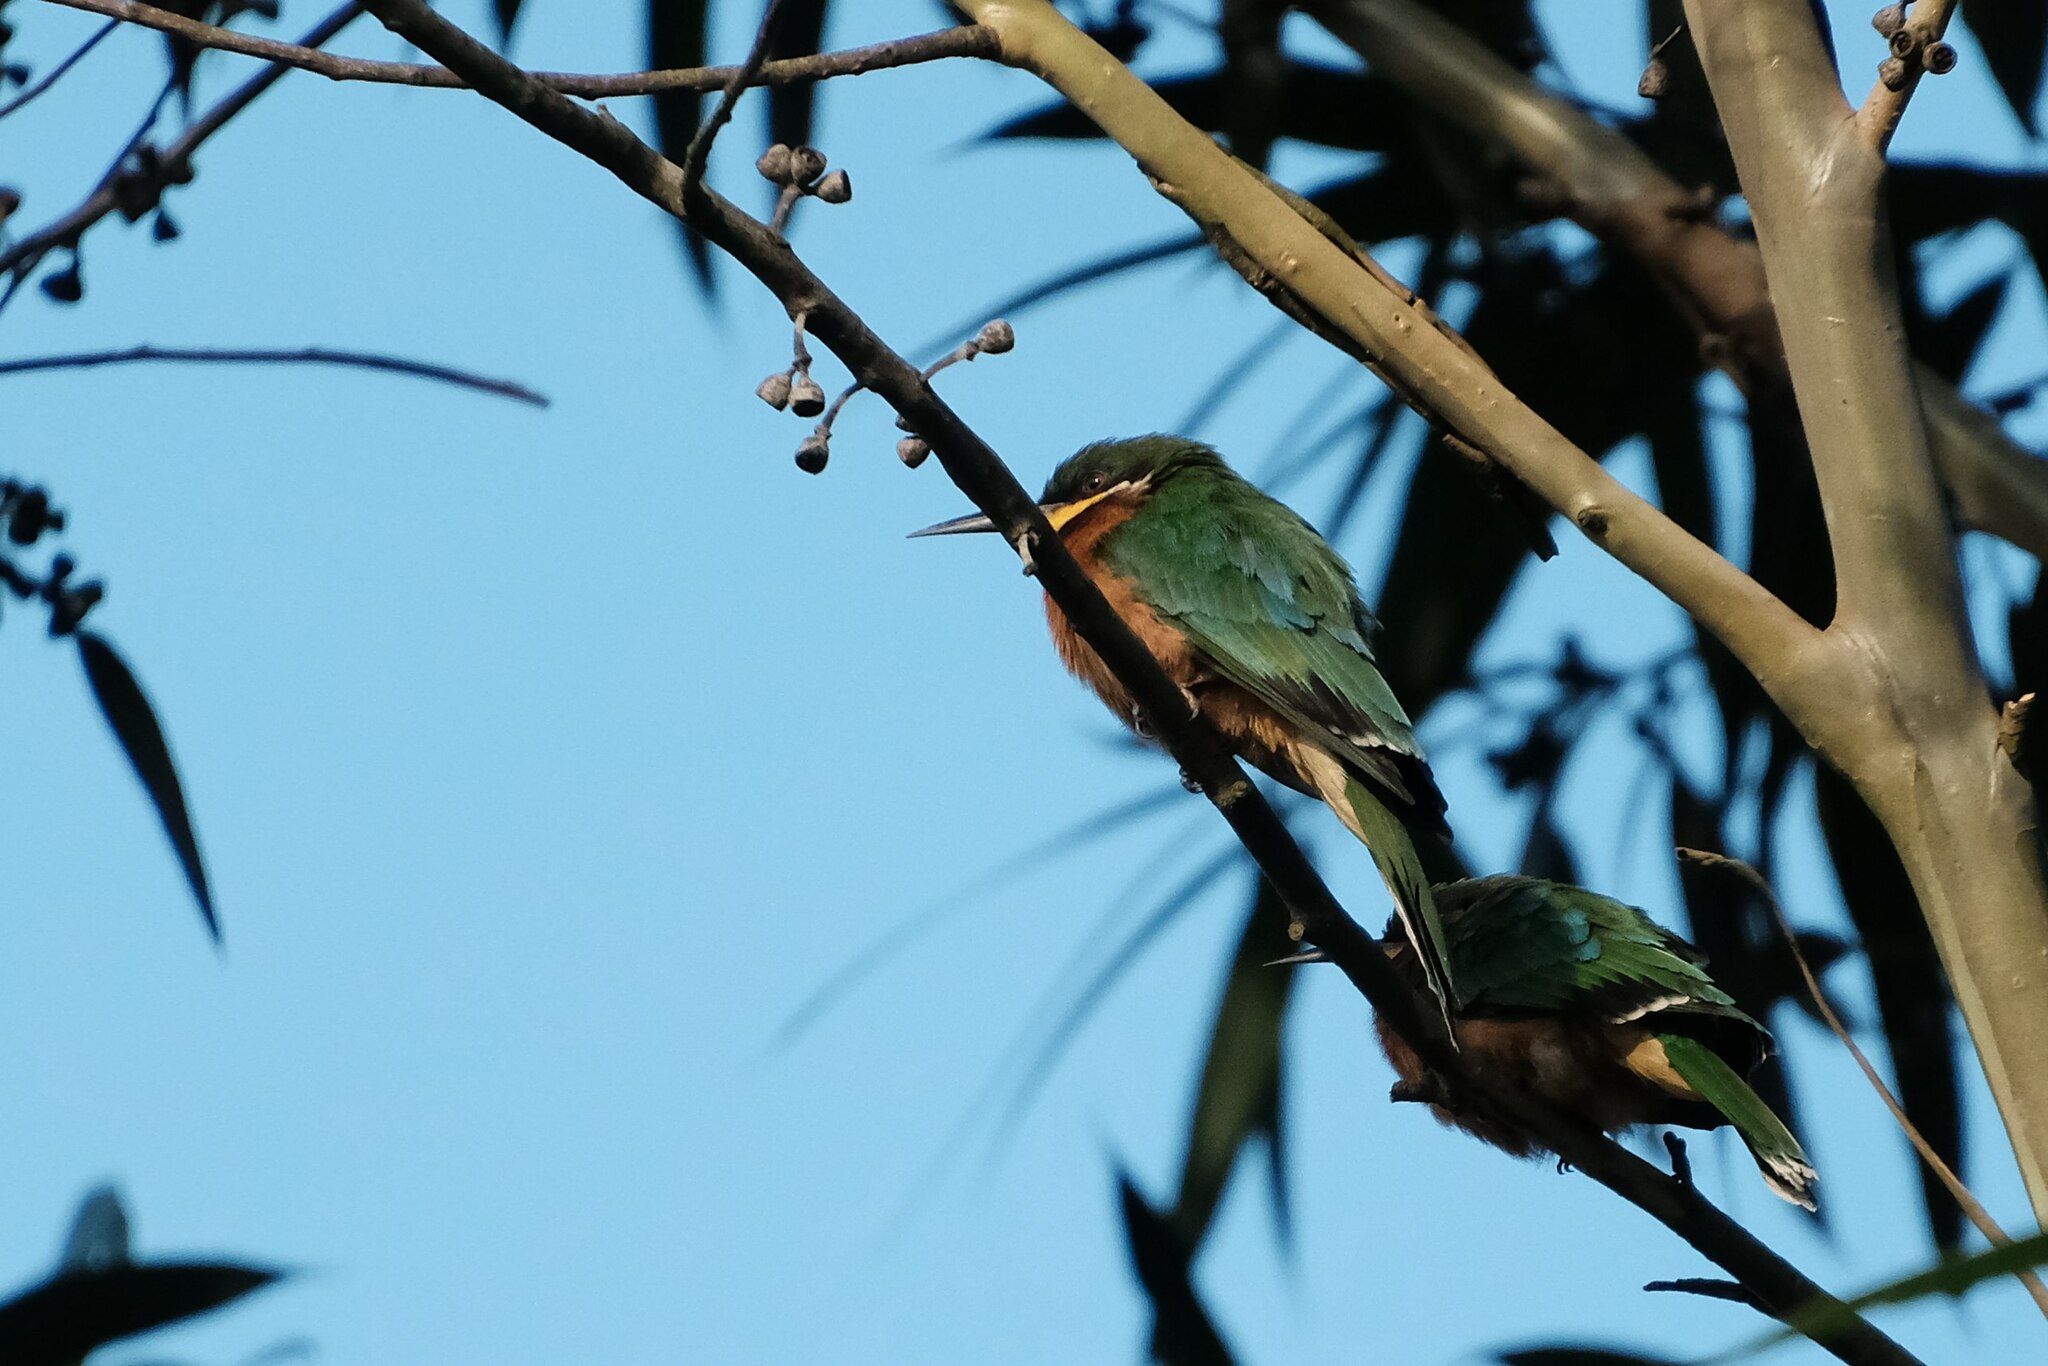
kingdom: Animalia
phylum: Chordata
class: Aves
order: Coraciiformes
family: Meropidae
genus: Merops
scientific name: Merops oreobates
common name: Cinnamon-chested bee-eater
